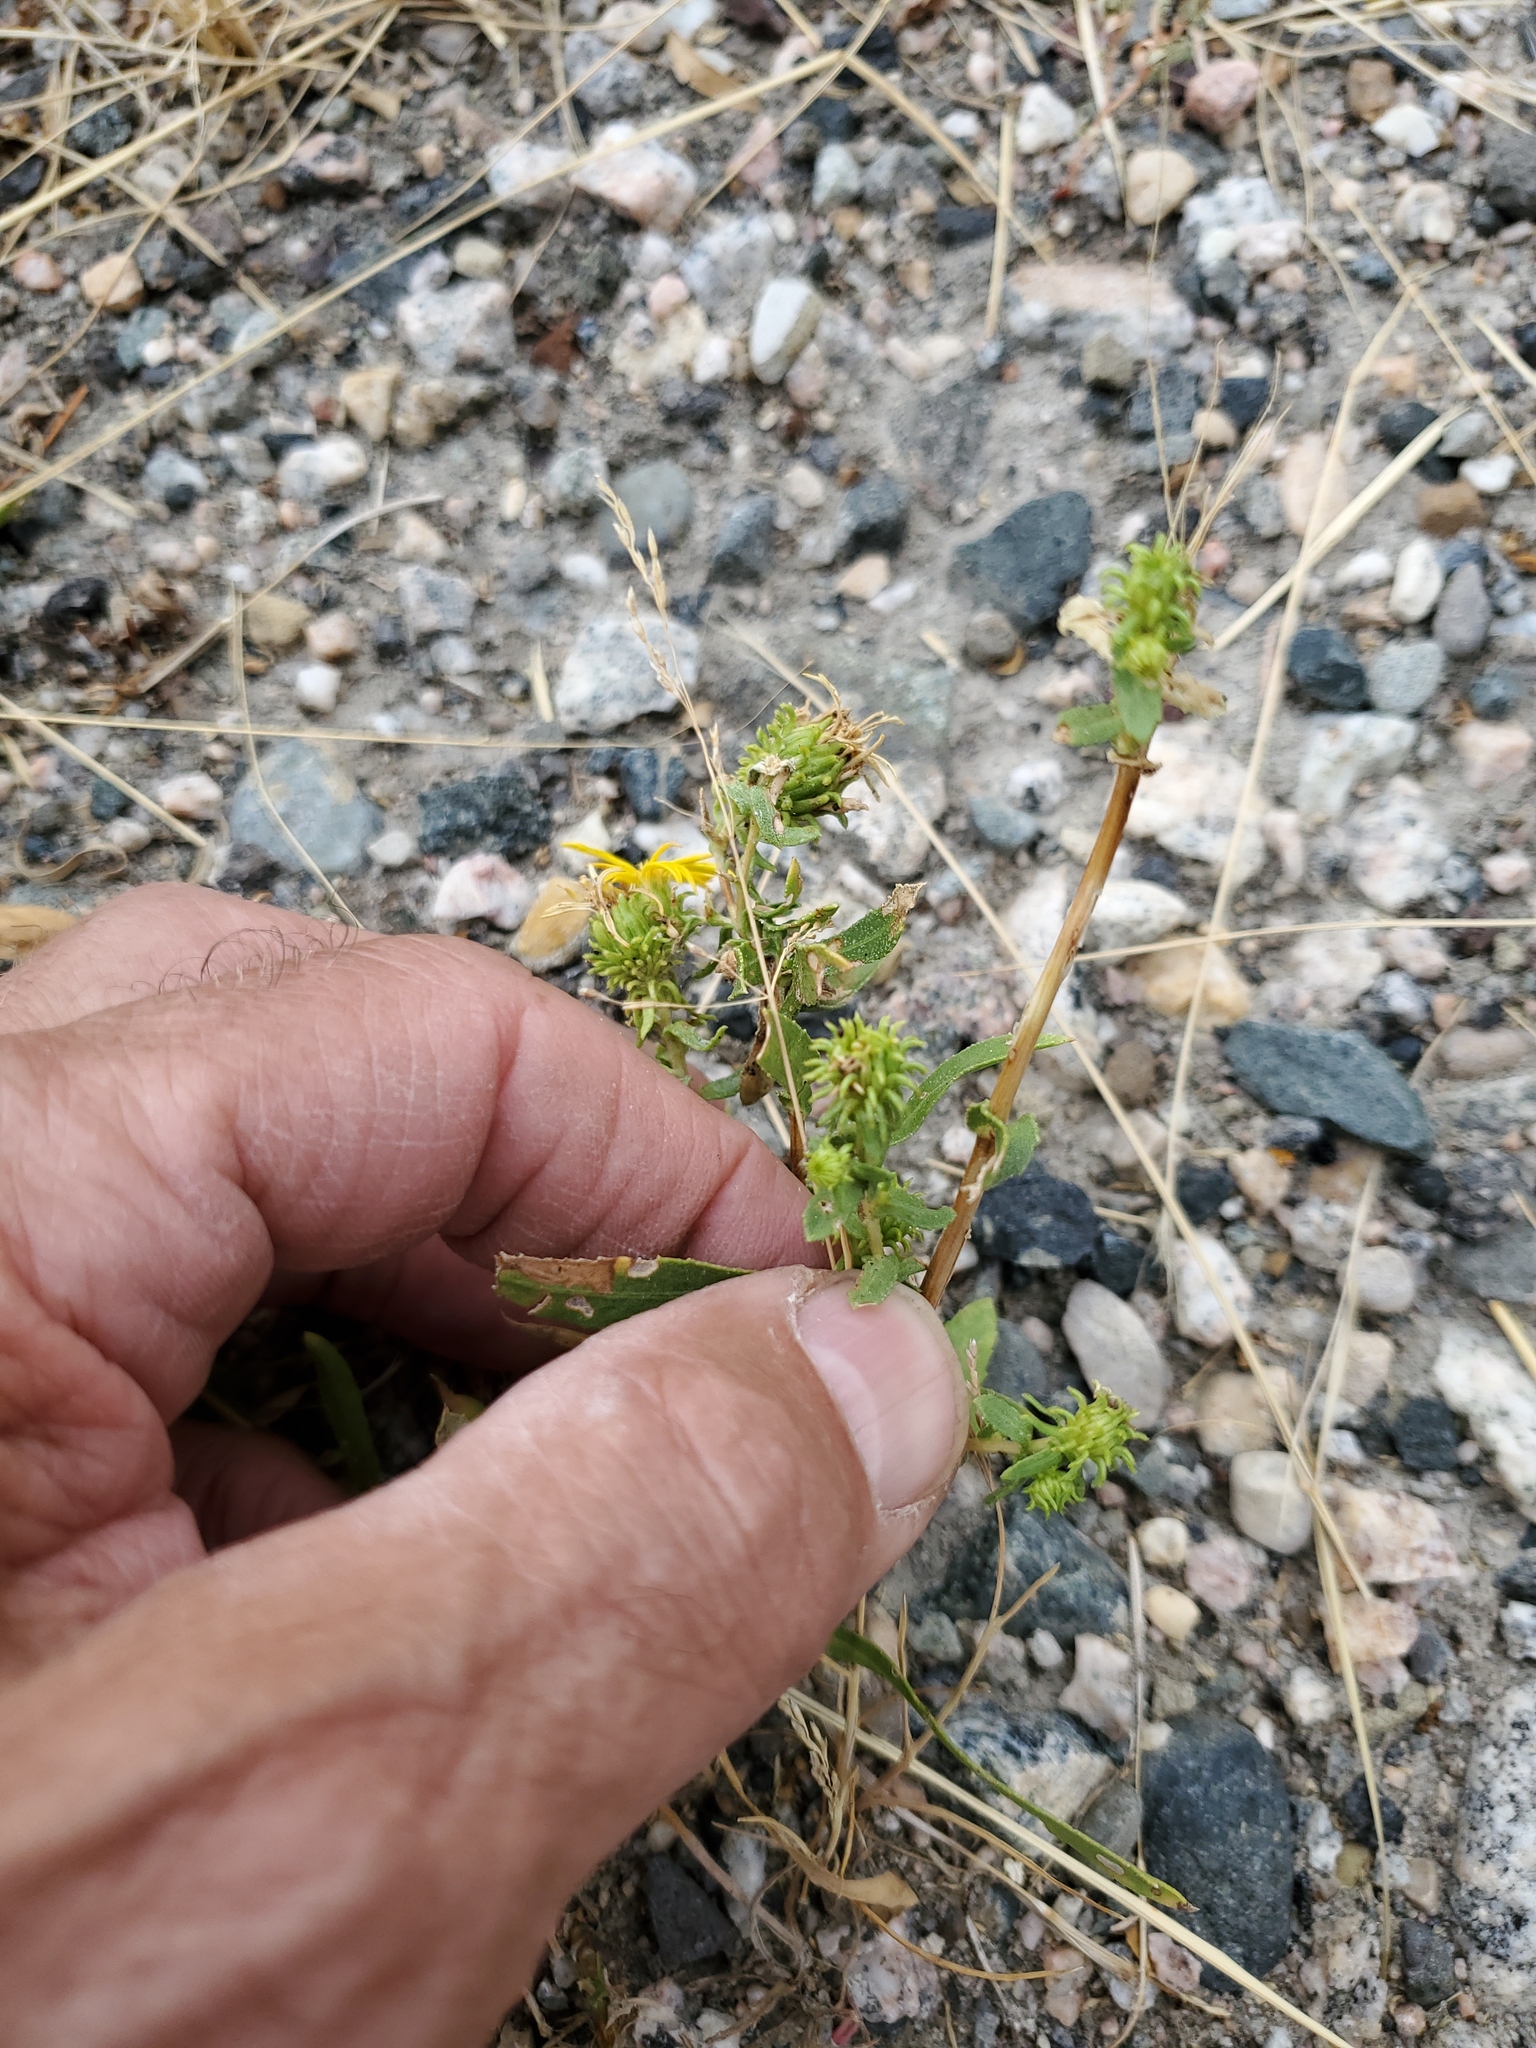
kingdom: Plantae
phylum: Tracheophyta
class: Magnoliopsida
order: Asterales
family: Asteraceae
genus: Grindelia
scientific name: Grindelia squarrosa
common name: Curly-cup gumweed
